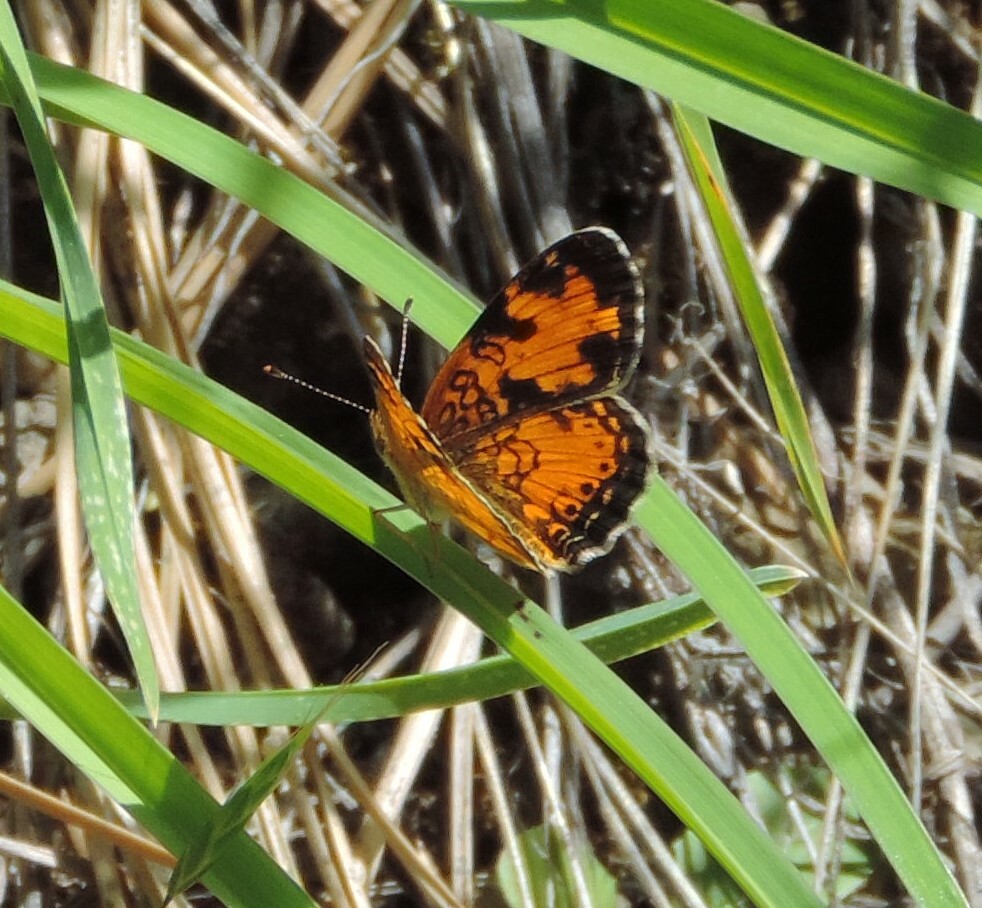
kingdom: Animalia
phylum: Arthropoda
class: Insecta
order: Lepidoptera
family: Nymphalidae
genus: Phyciodes
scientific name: Phyciodes tharos
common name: Pearl crescent
